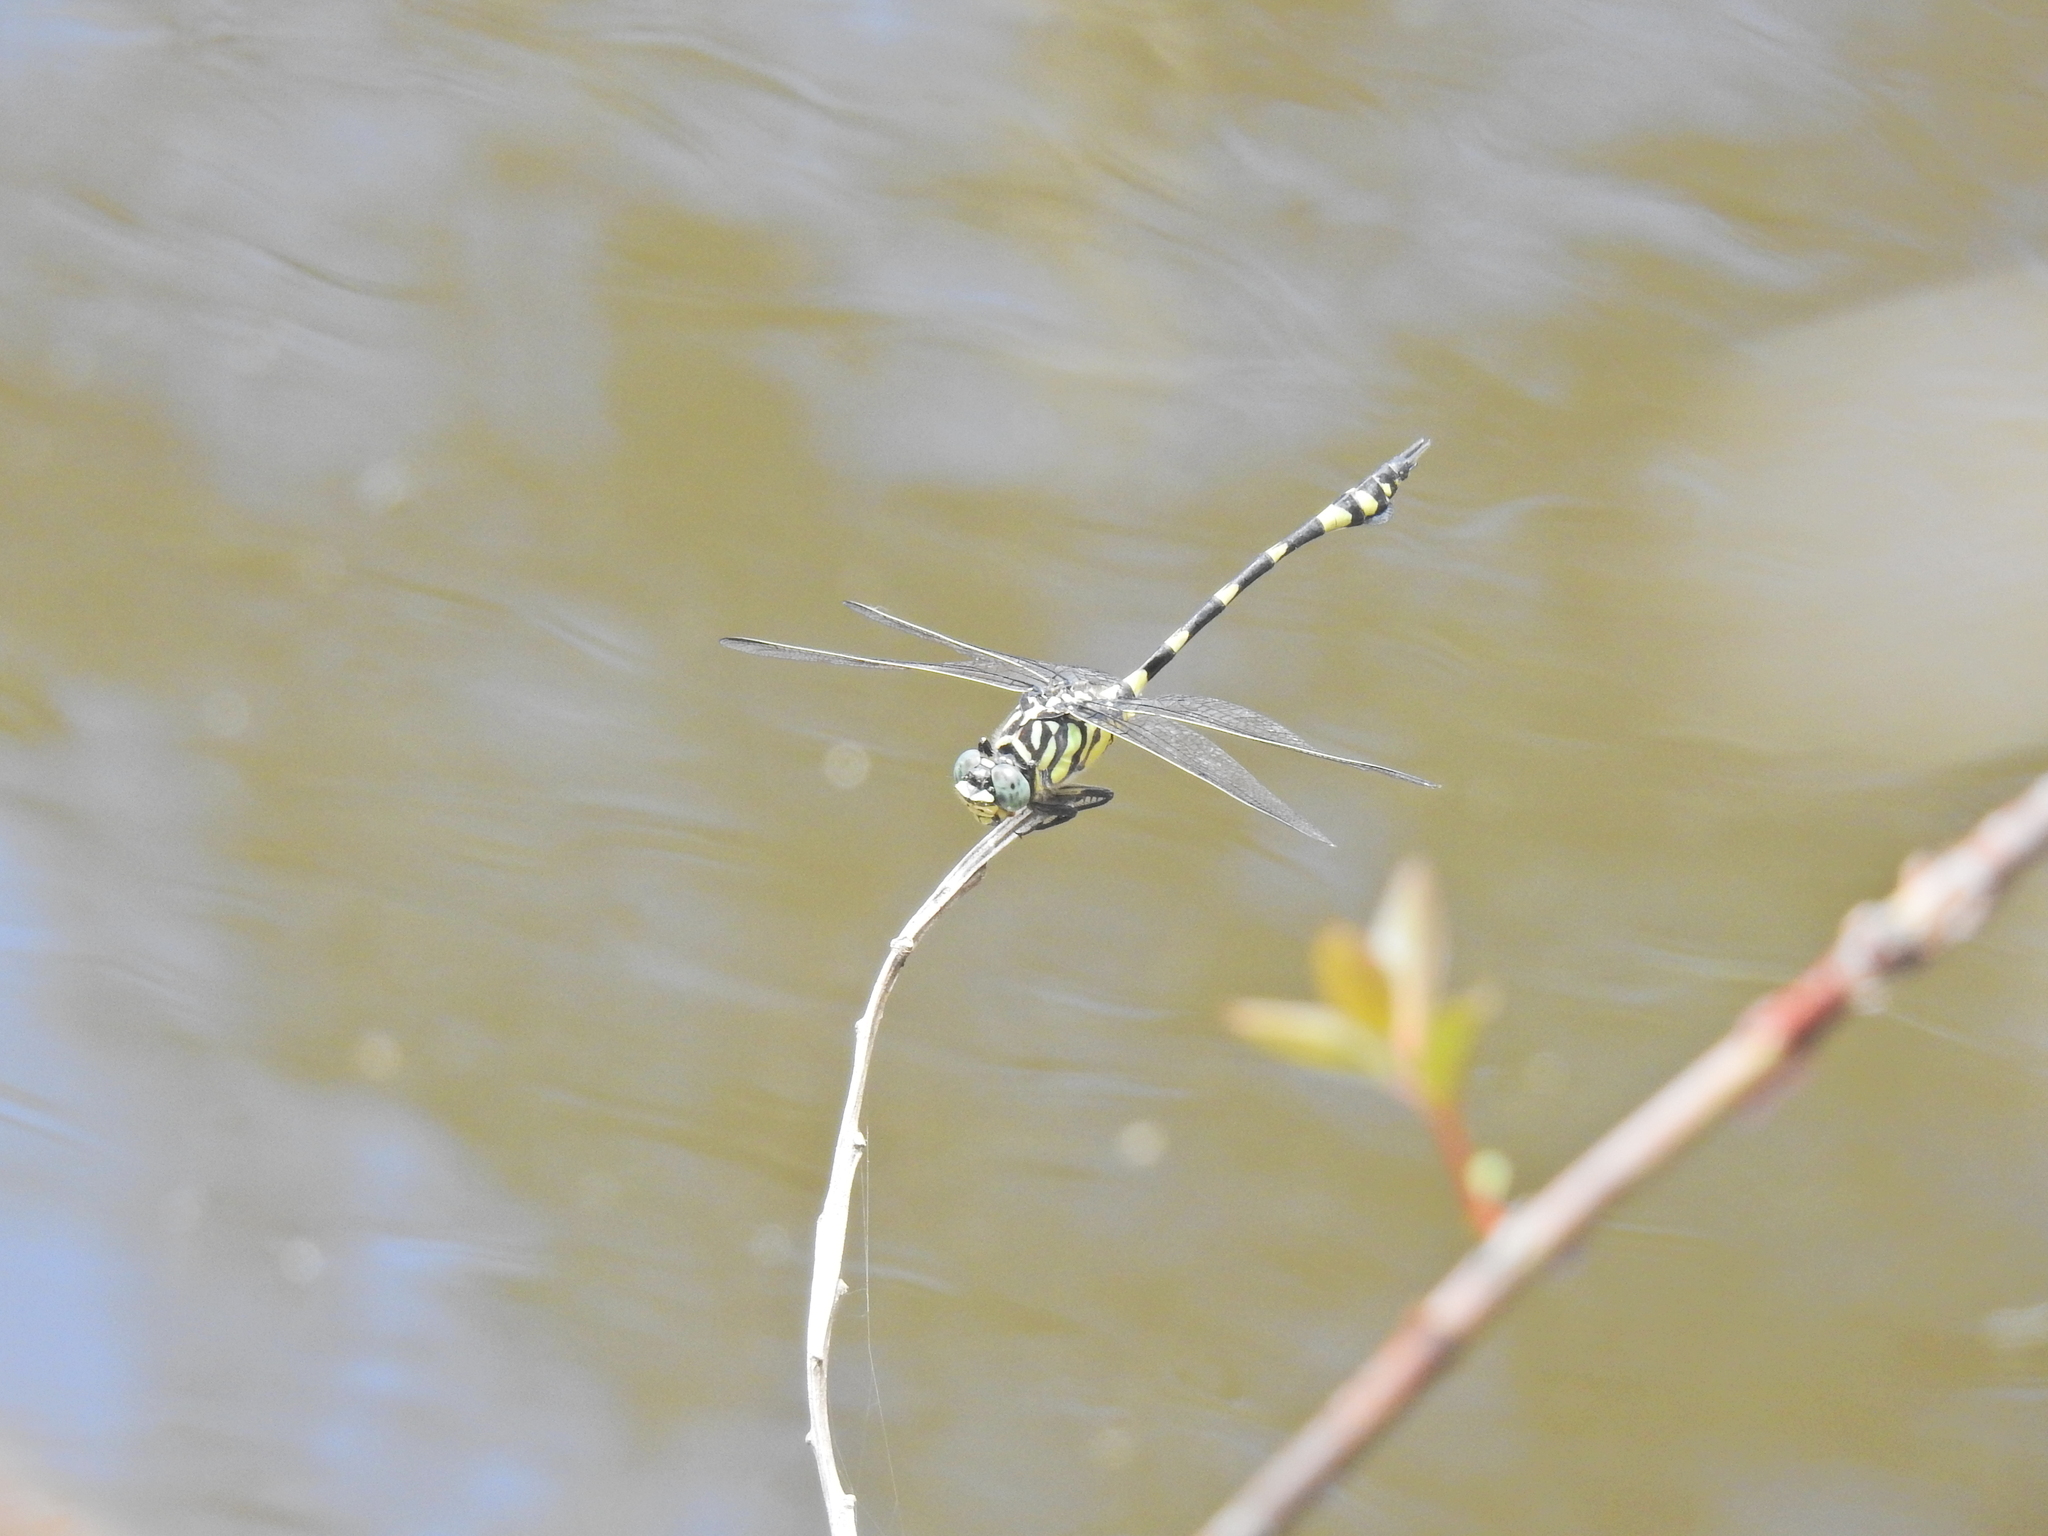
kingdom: Animalia
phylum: Arthropoda
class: Insecta
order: Odonata
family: Gomphidae
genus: Ictinogomphus
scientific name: Ictinogomphus australis
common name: Australian tiger
